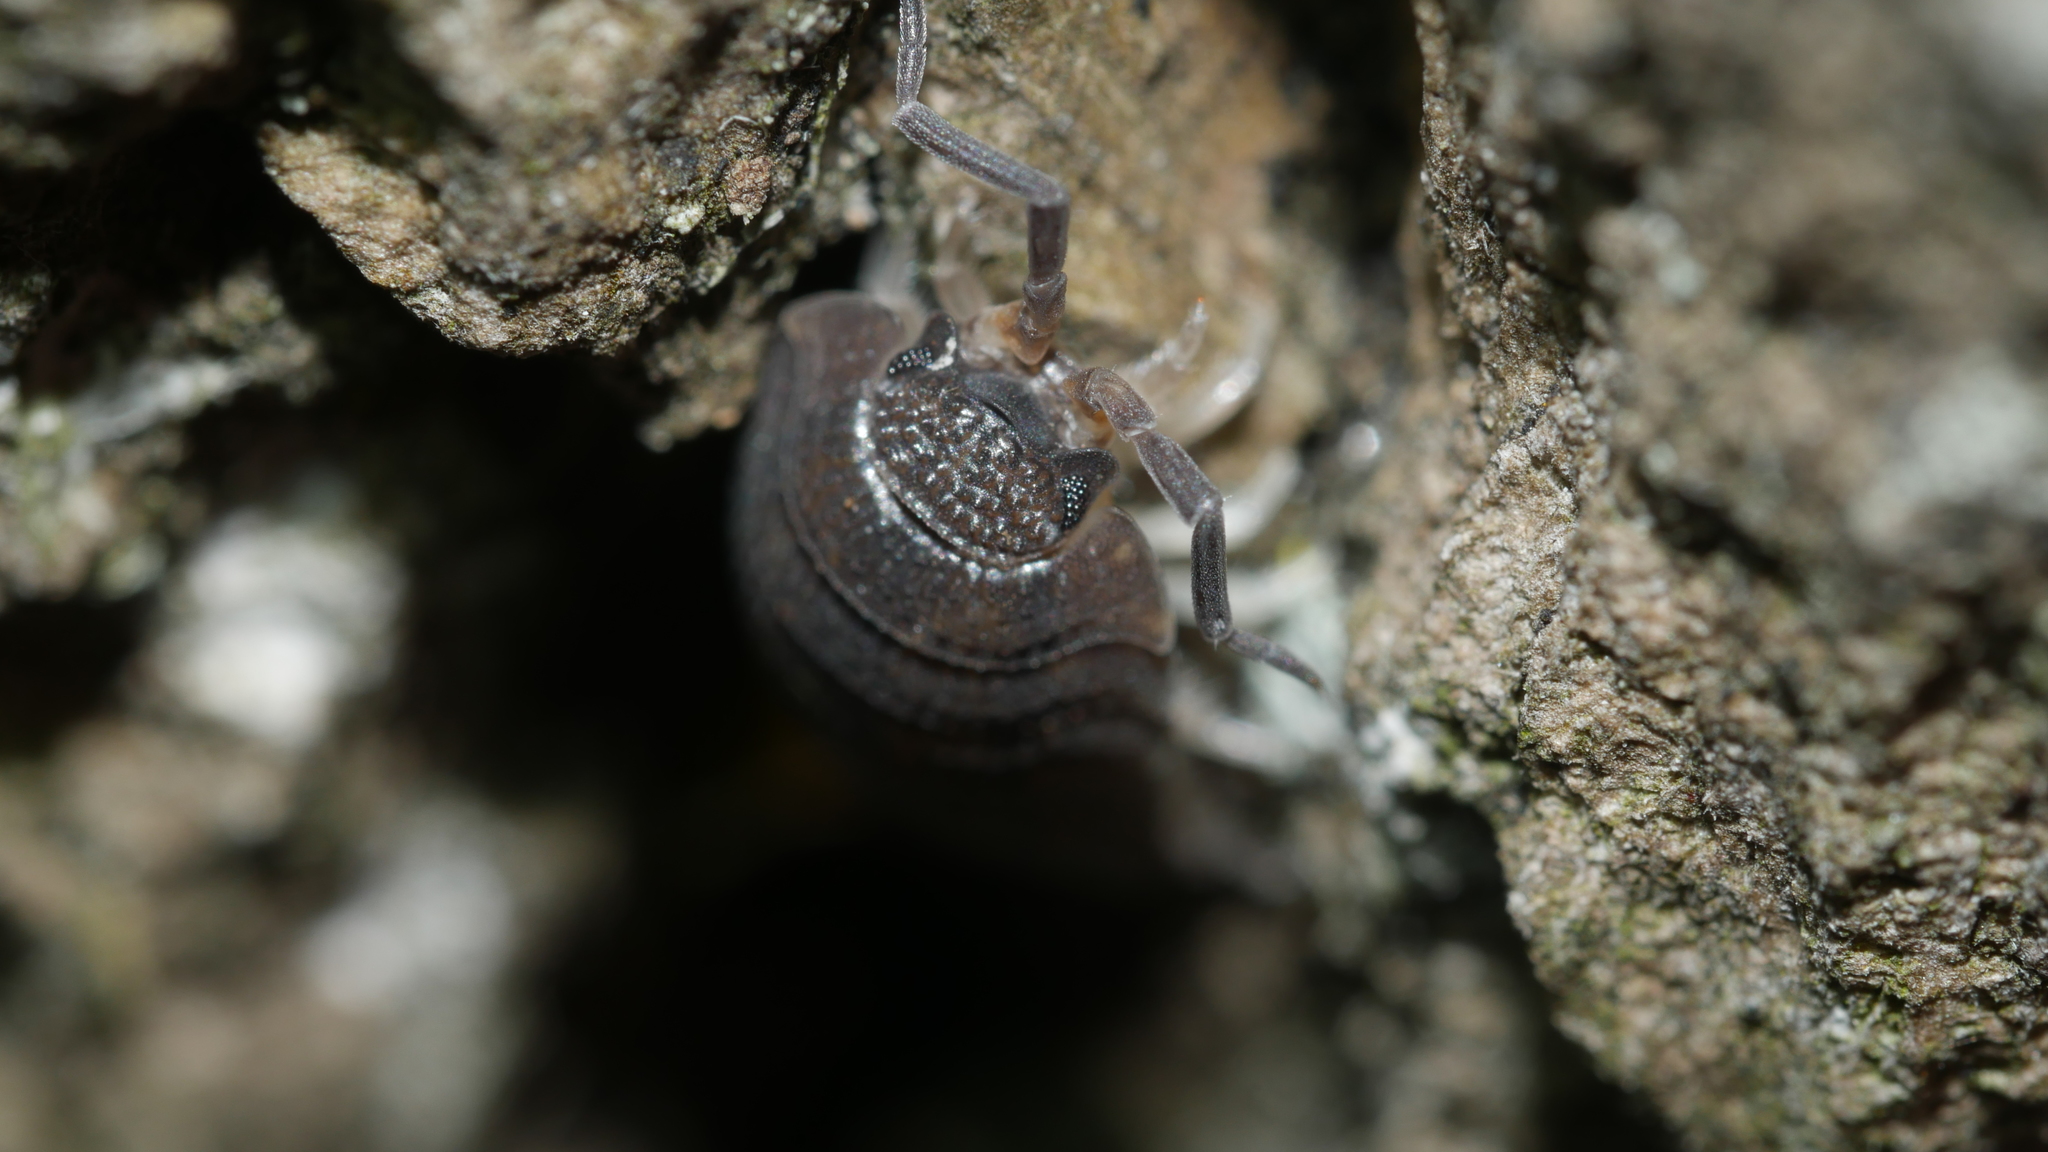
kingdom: Animalia
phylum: Arthropoda
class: Malacostraca
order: Isopoda
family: Porcellionidae
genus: Porcellio
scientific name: Porcellio scaber
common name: Common rough woodlouse
